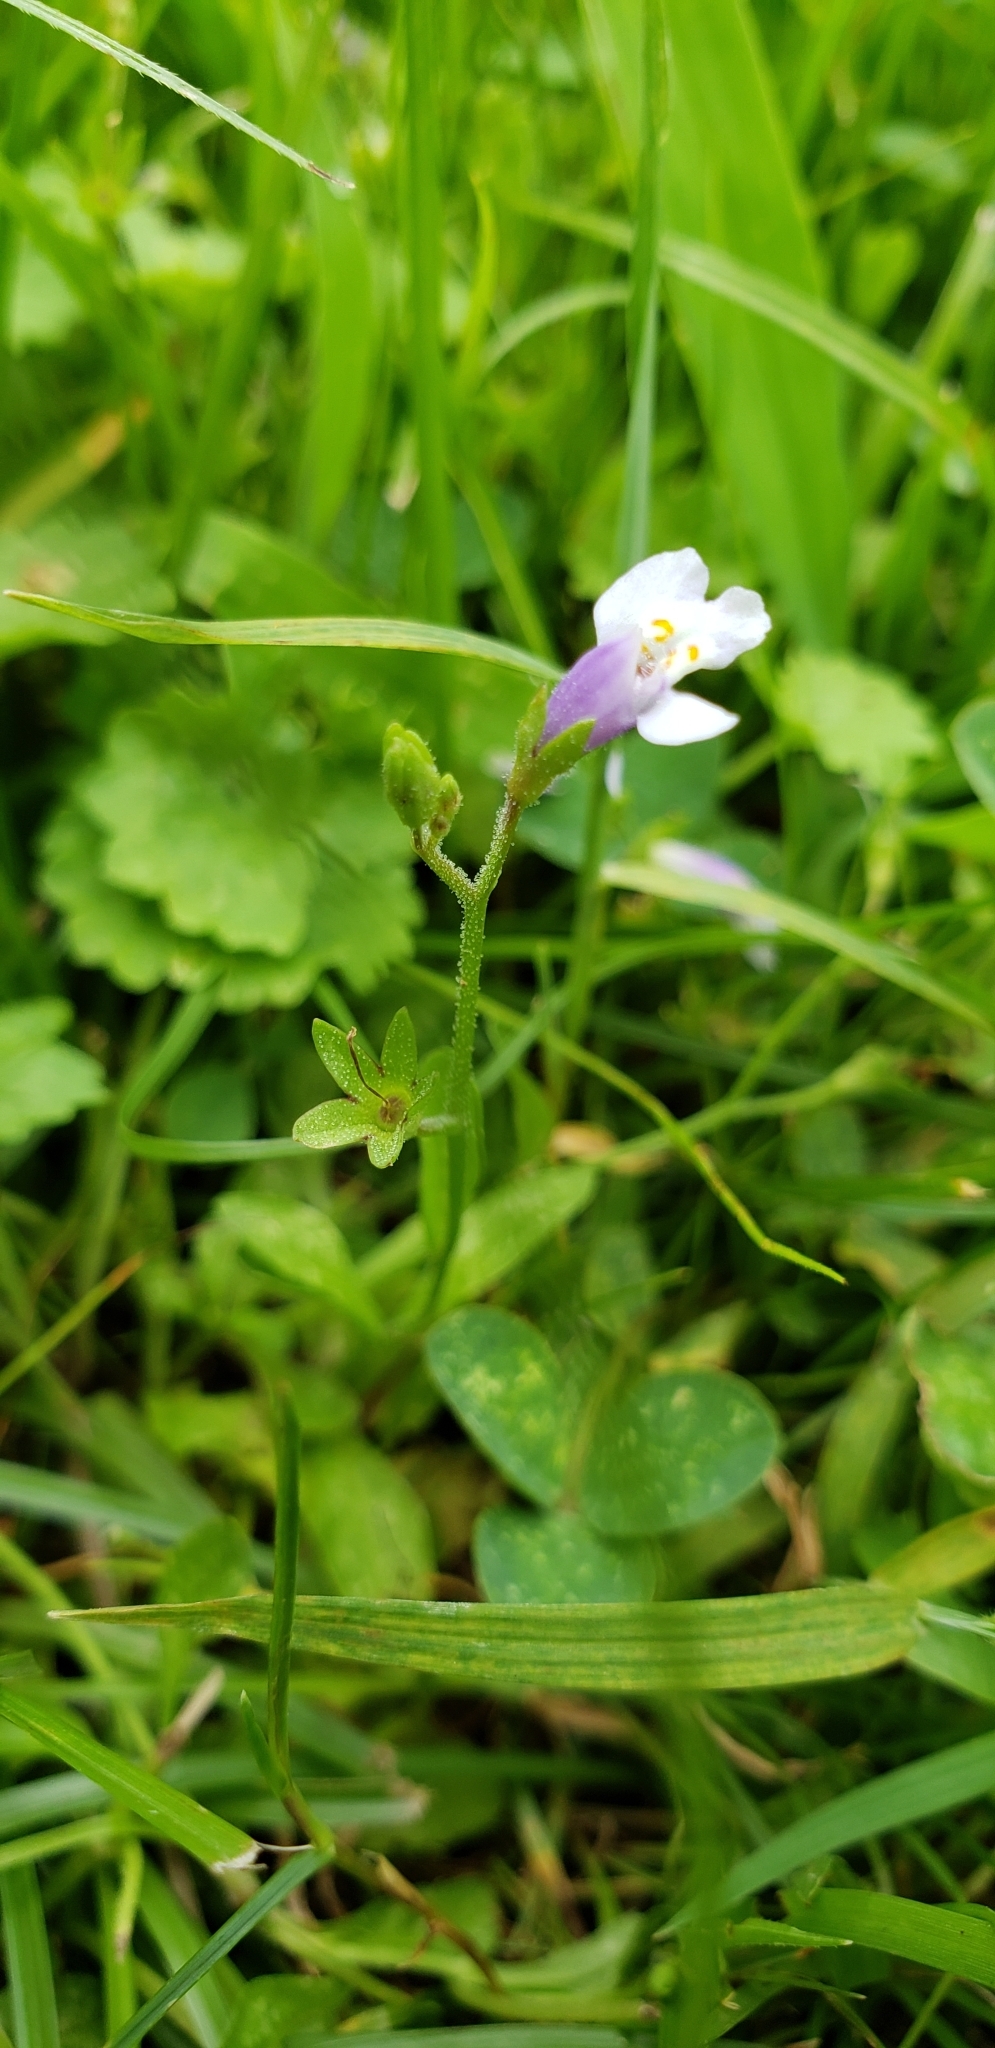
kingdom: Plantae
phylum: Tracheophyta
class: Magnoliopsida
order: Lamiales
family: Mazaceae
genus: Mazus
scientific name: Mazus pumilus
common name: Japanese mazus
